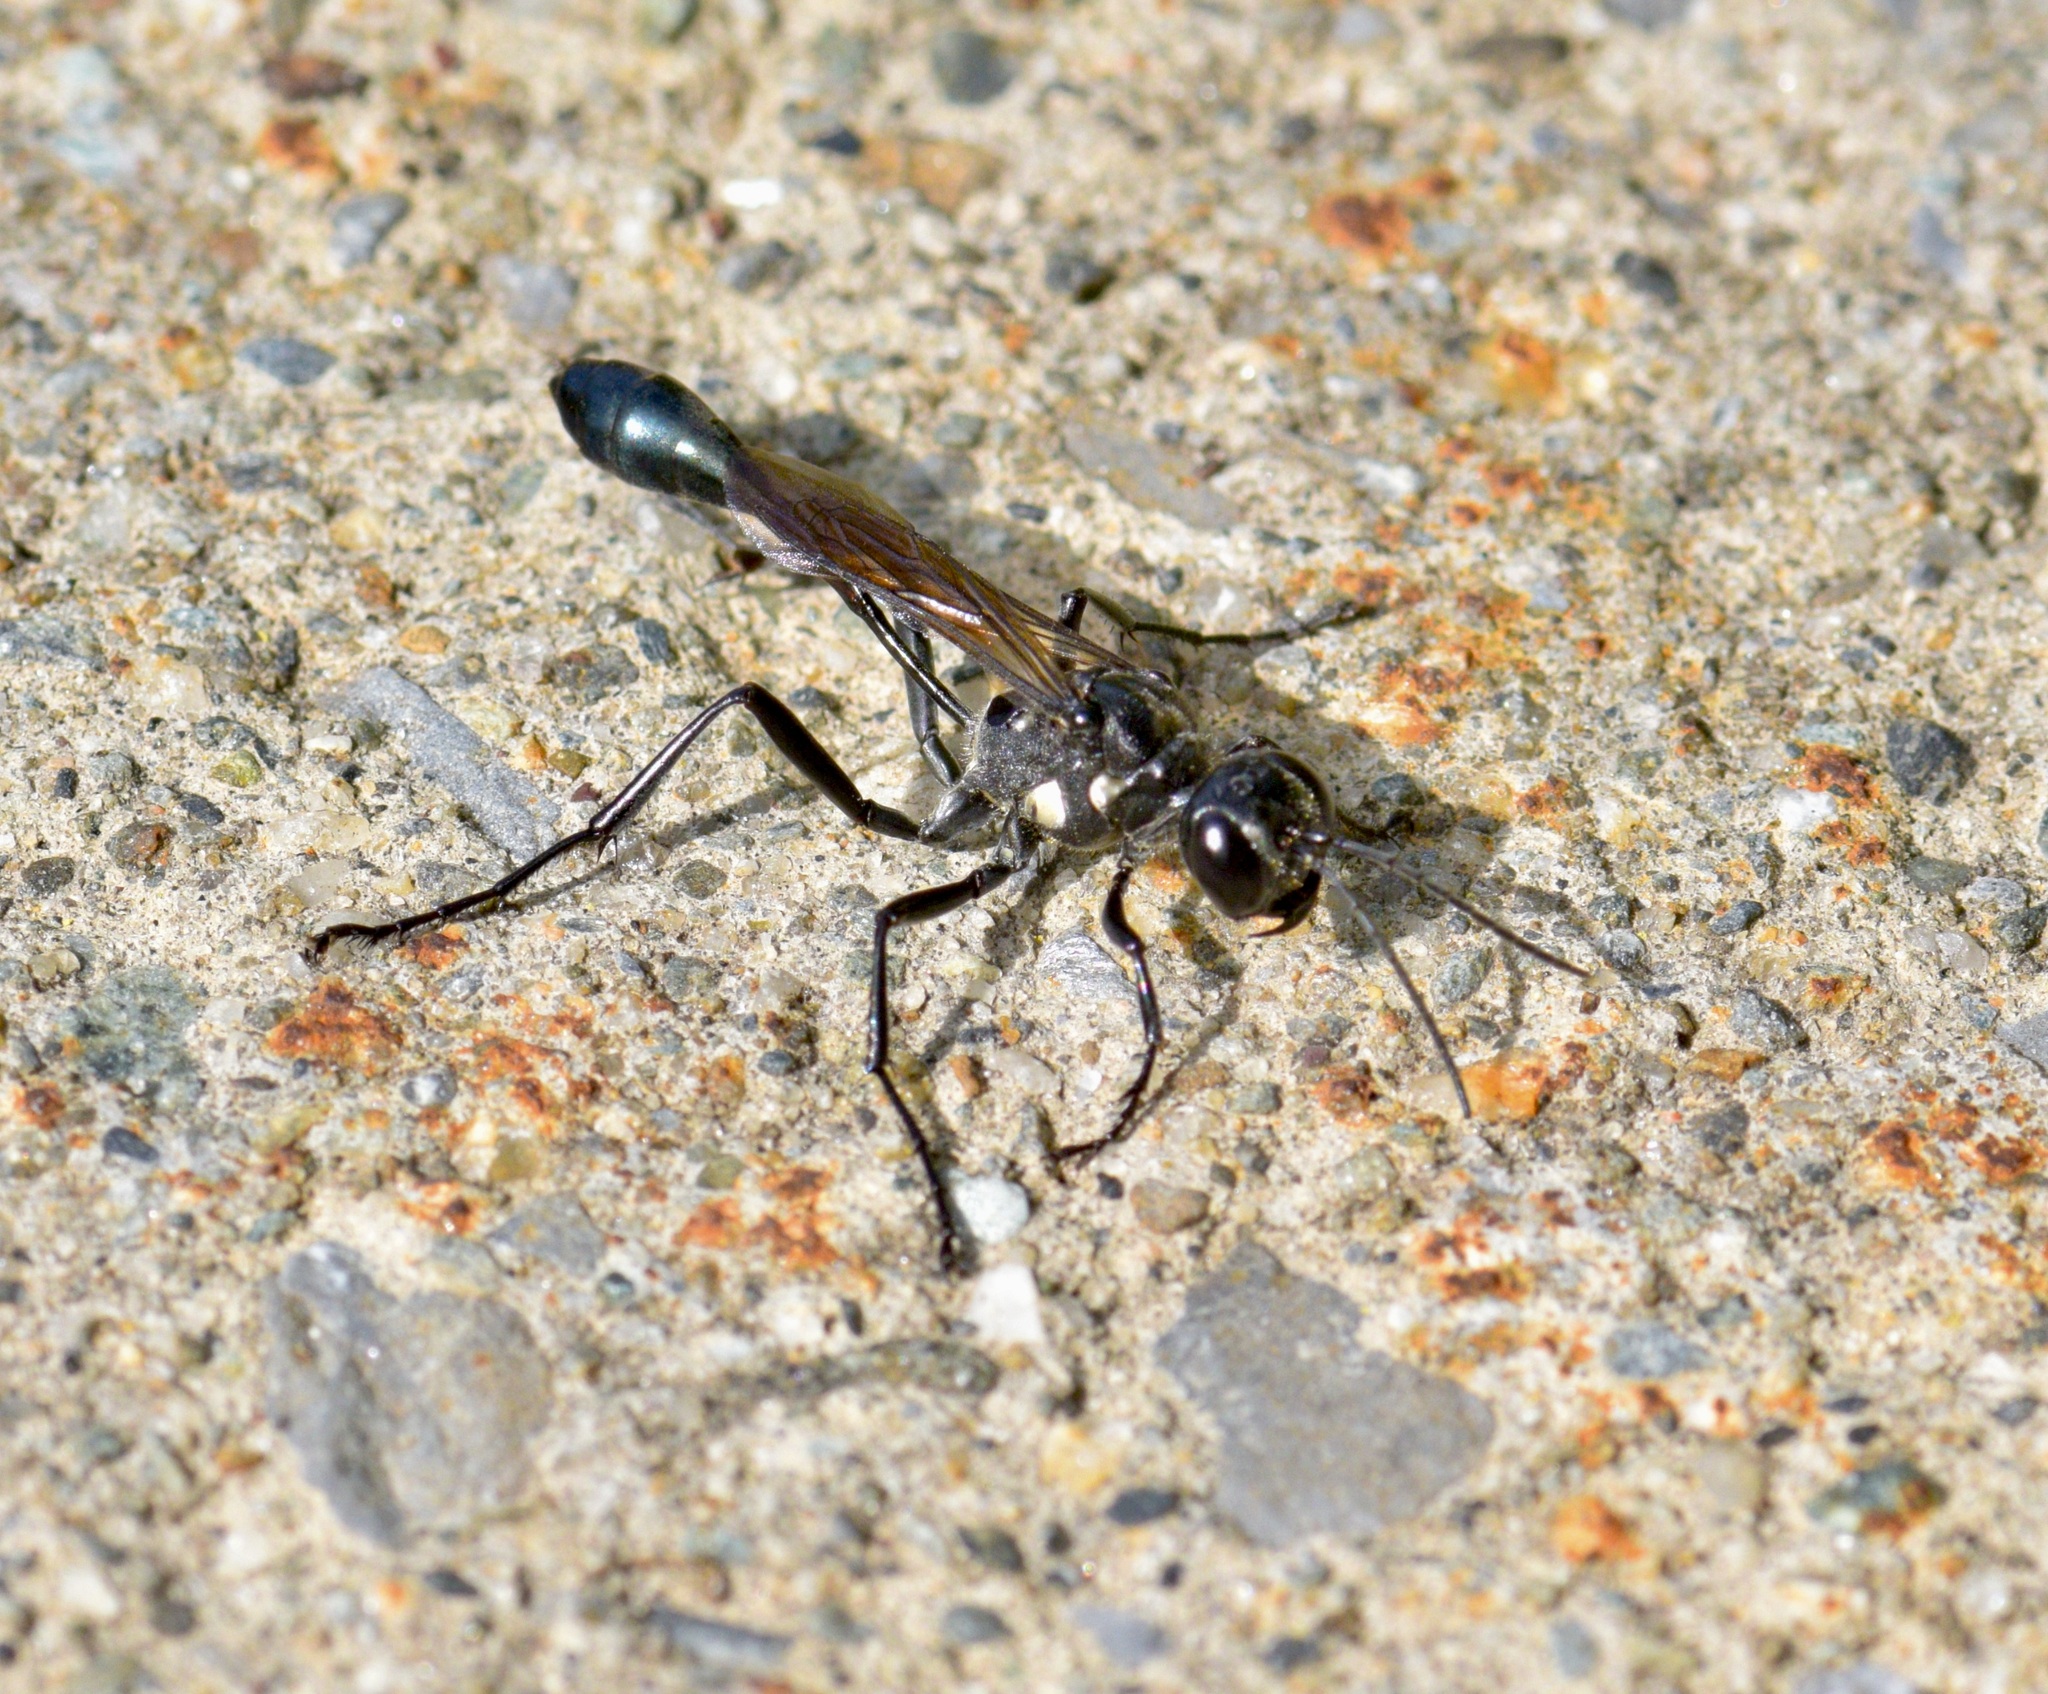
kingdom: Animalia
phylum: Arthropoda
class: Insecta
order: Hymenoptera
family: Sphecidae
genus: Eremnophila
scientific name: Eremnophila aureonotata
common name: Gold-marked thread-waisted wasp
